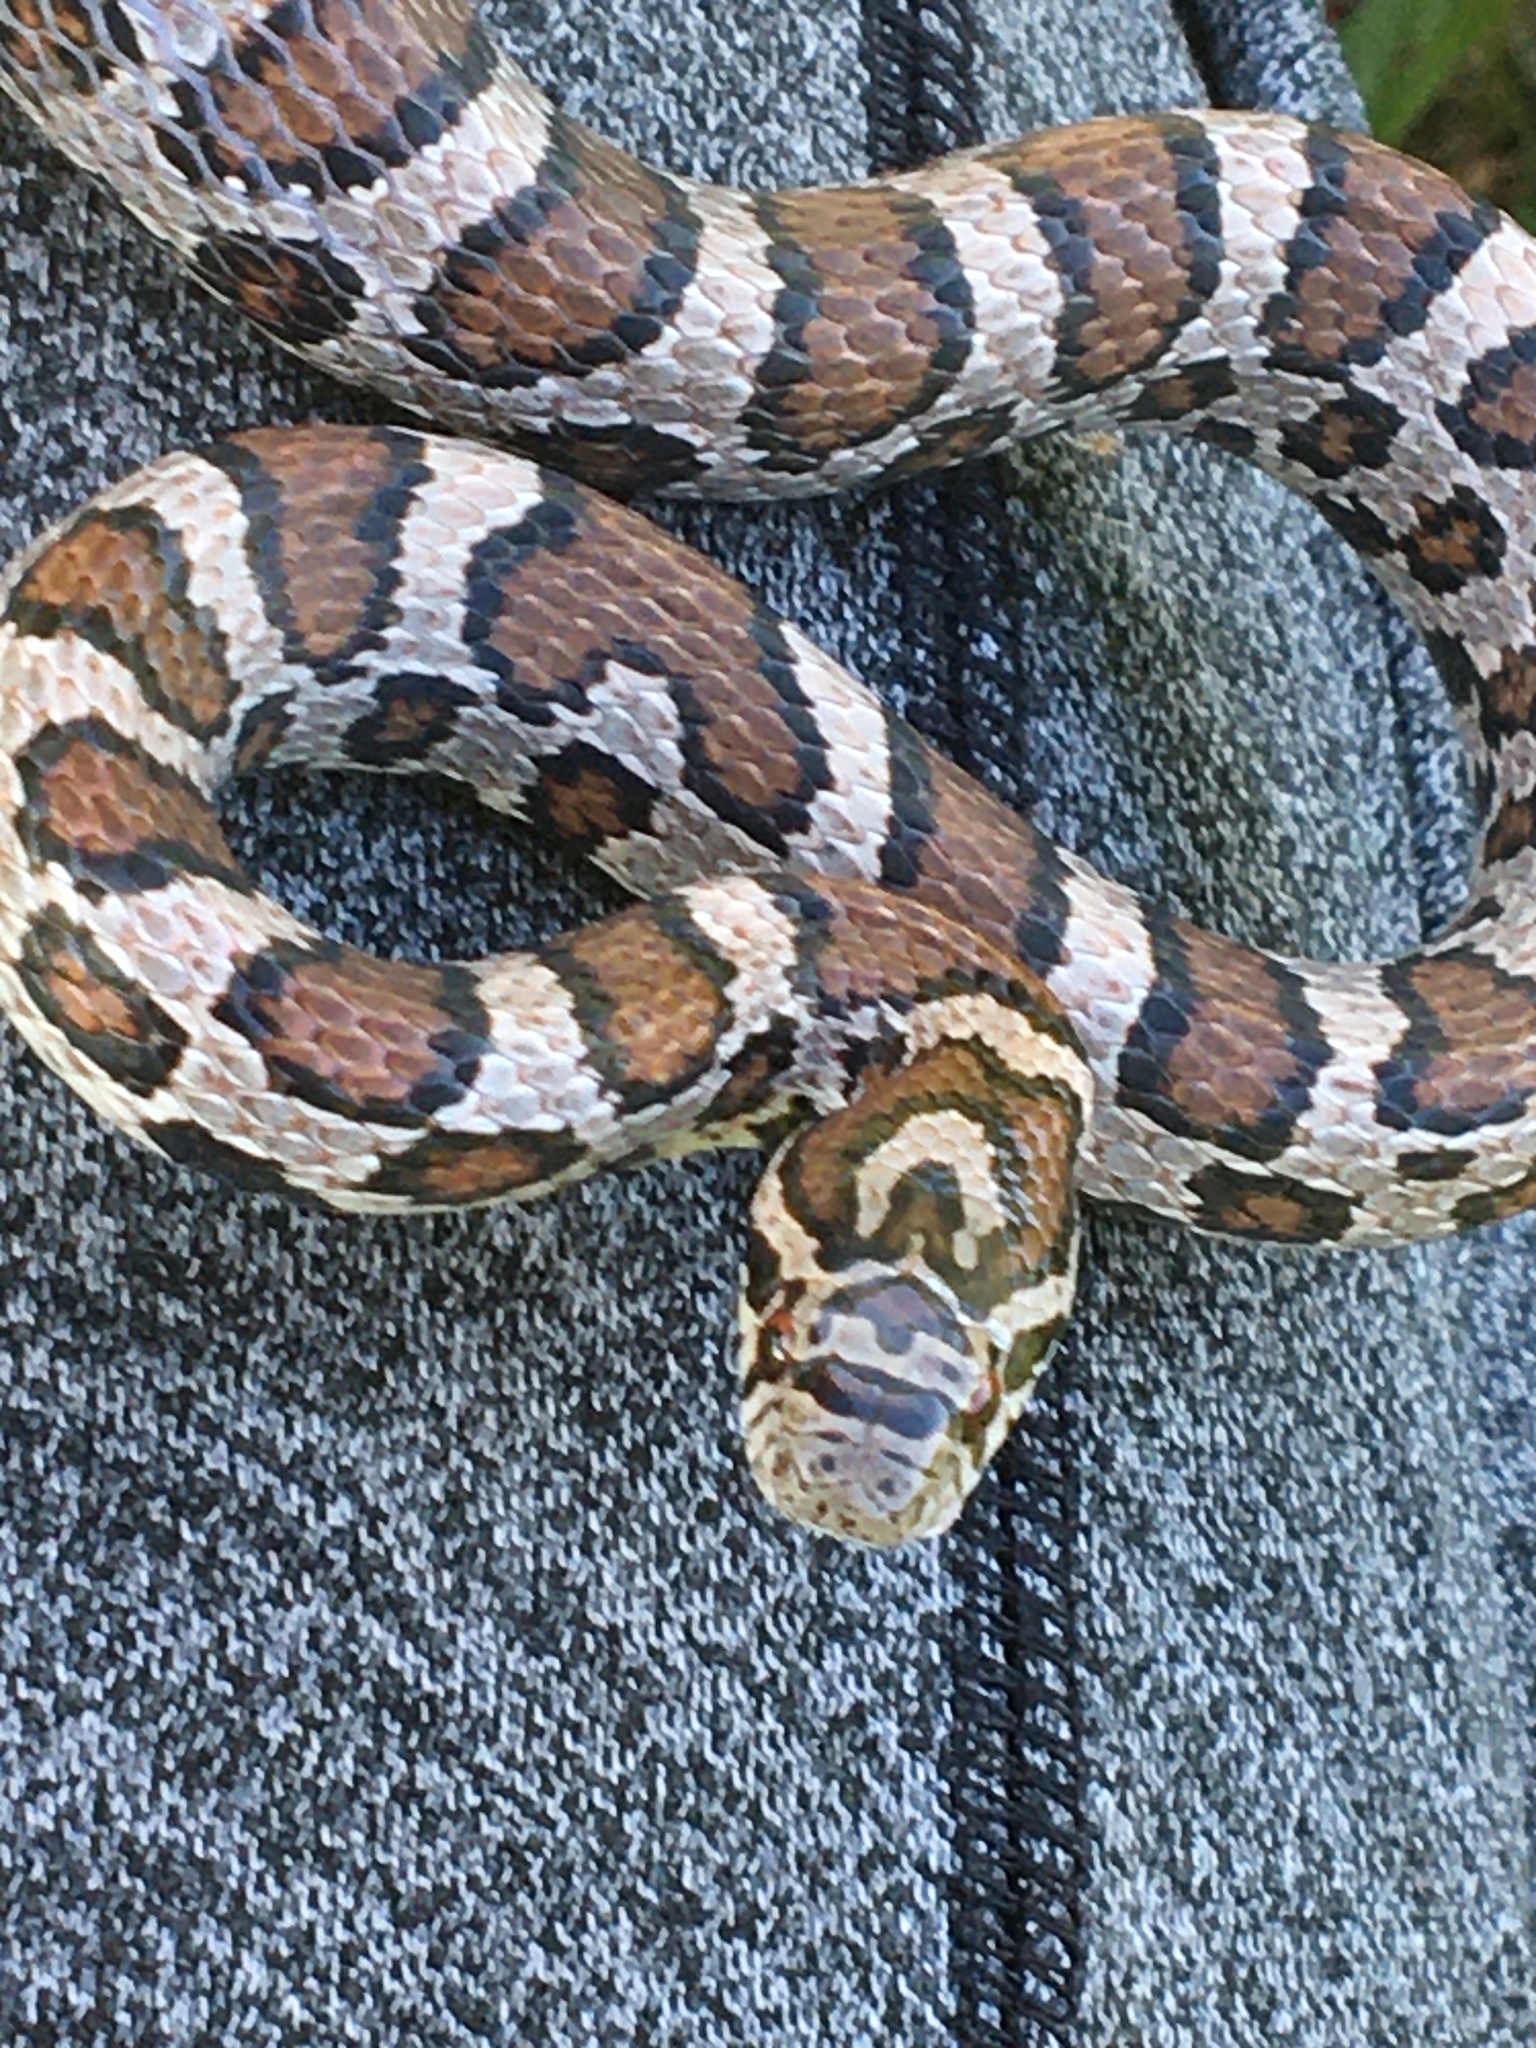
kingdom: Animalia
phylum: Chordata
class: Squamata
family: Colubridae
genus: Lampropeltis
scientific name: Lampropeltis triangulum
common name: Eastern milksnake
